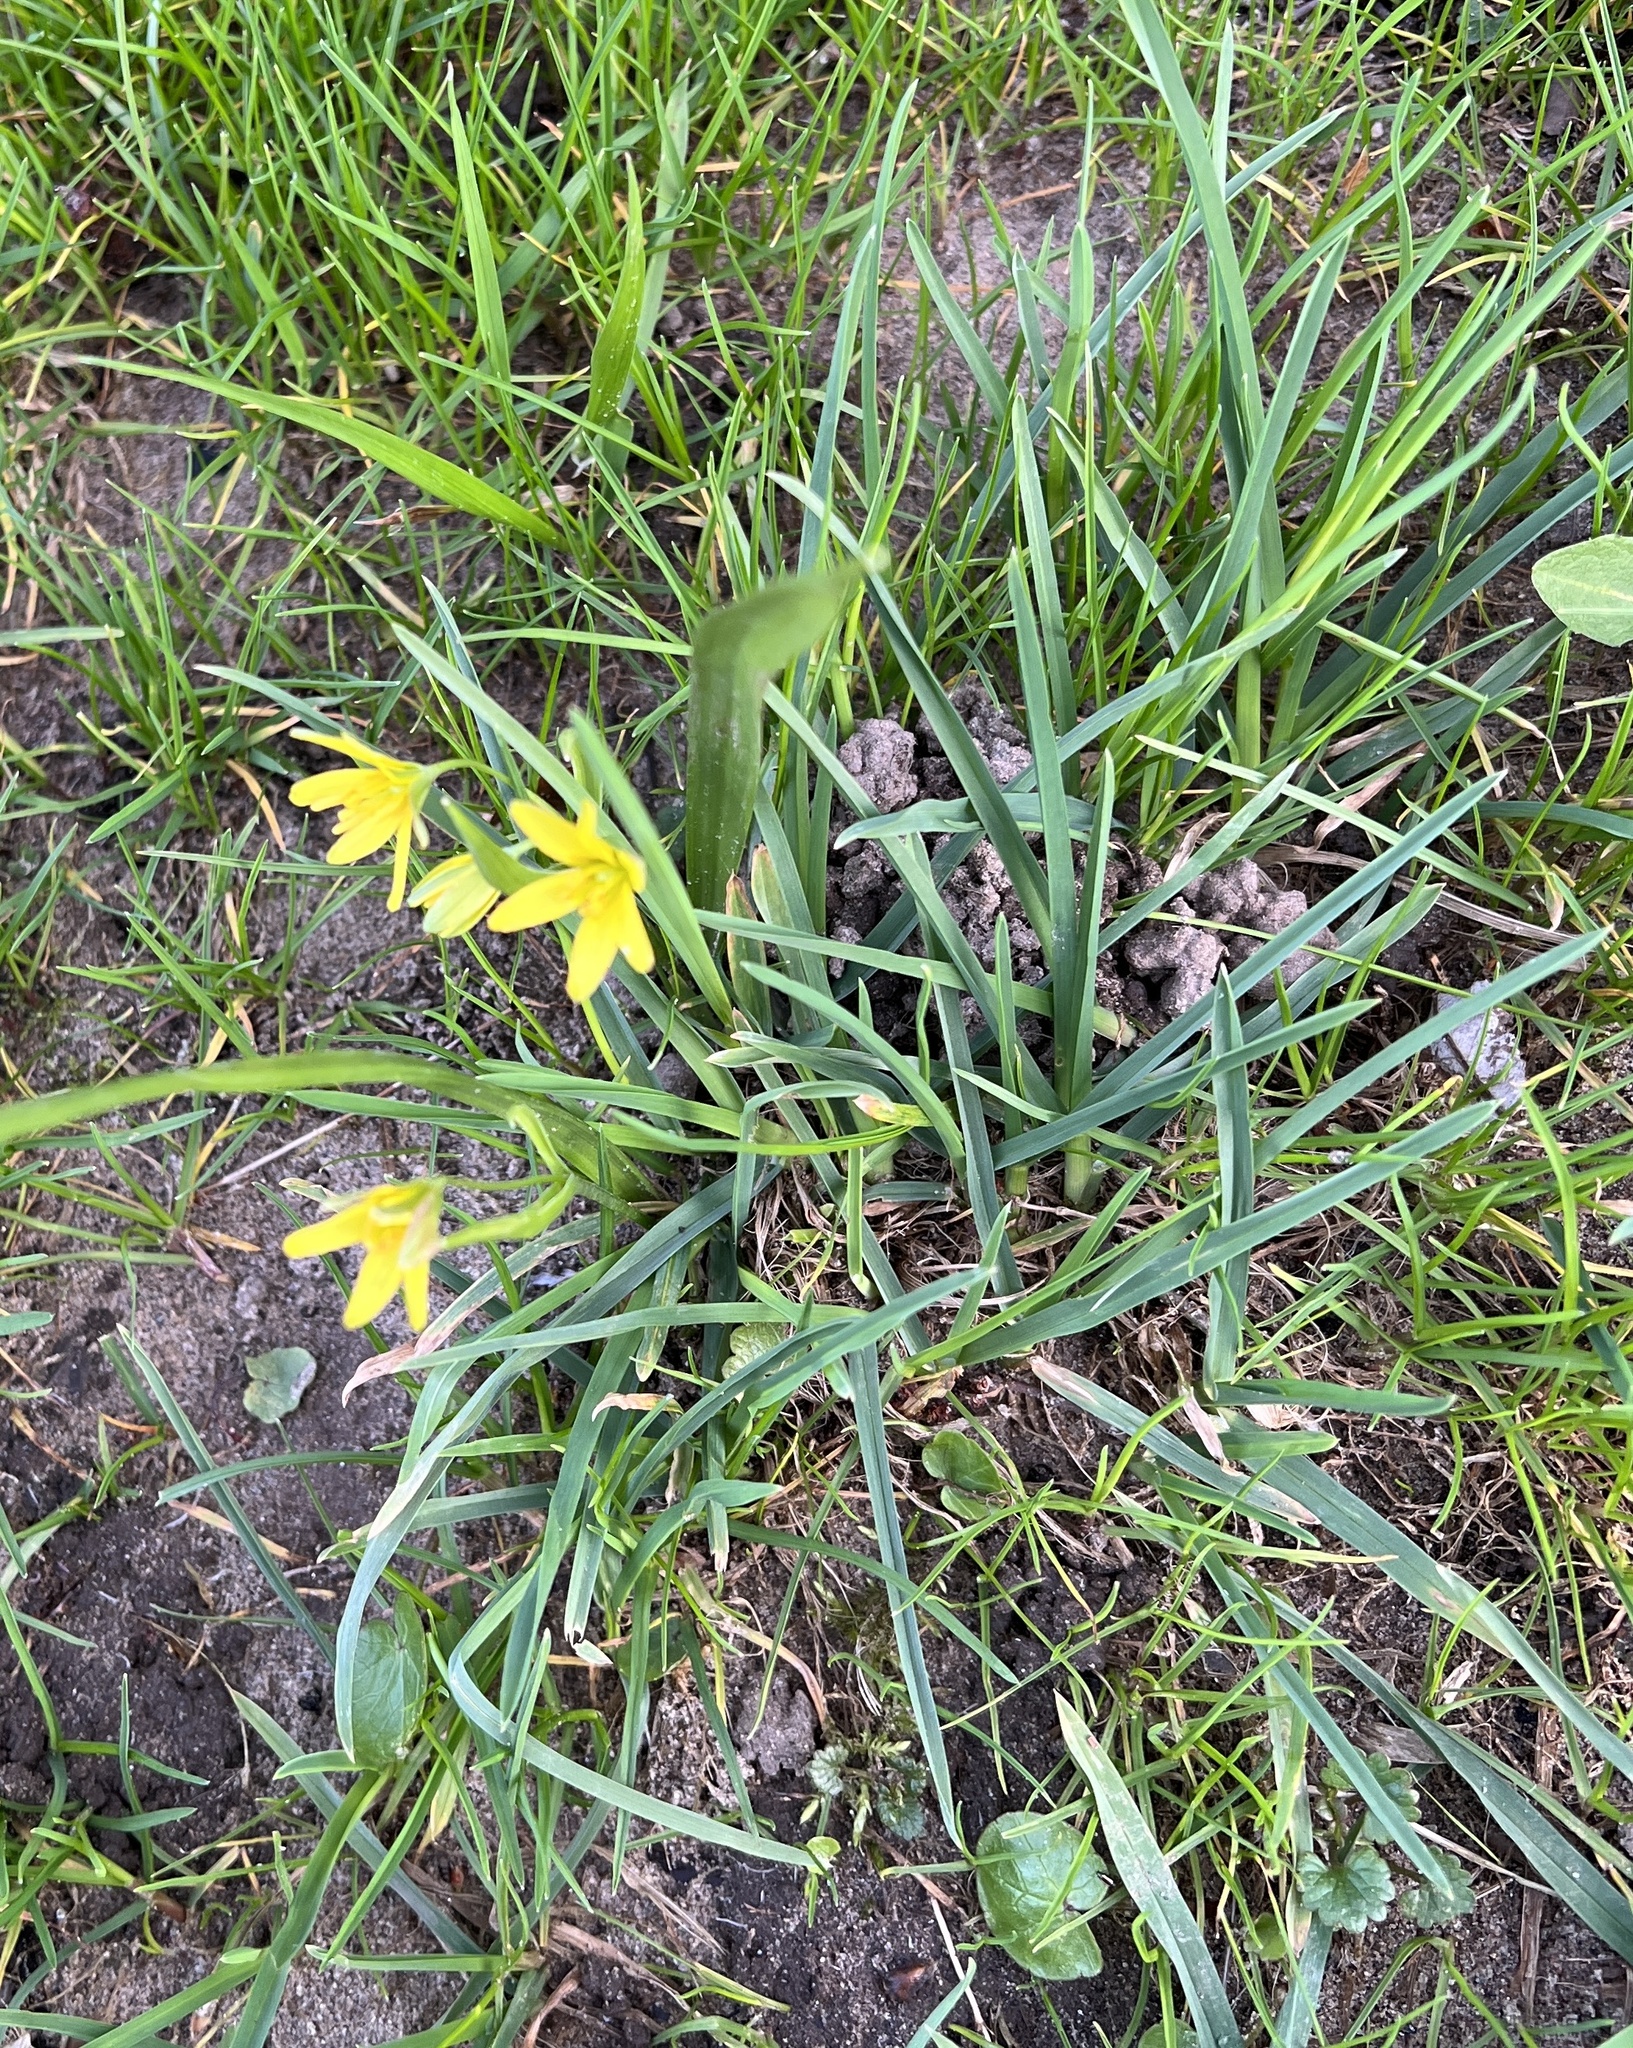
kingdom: Plantae
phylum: Tracheophyta
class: Liliopsida
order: Liliales
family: Liliaceae
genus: Gagea
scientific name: Gagea lutea
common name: Yellow star-of-bethlehem
